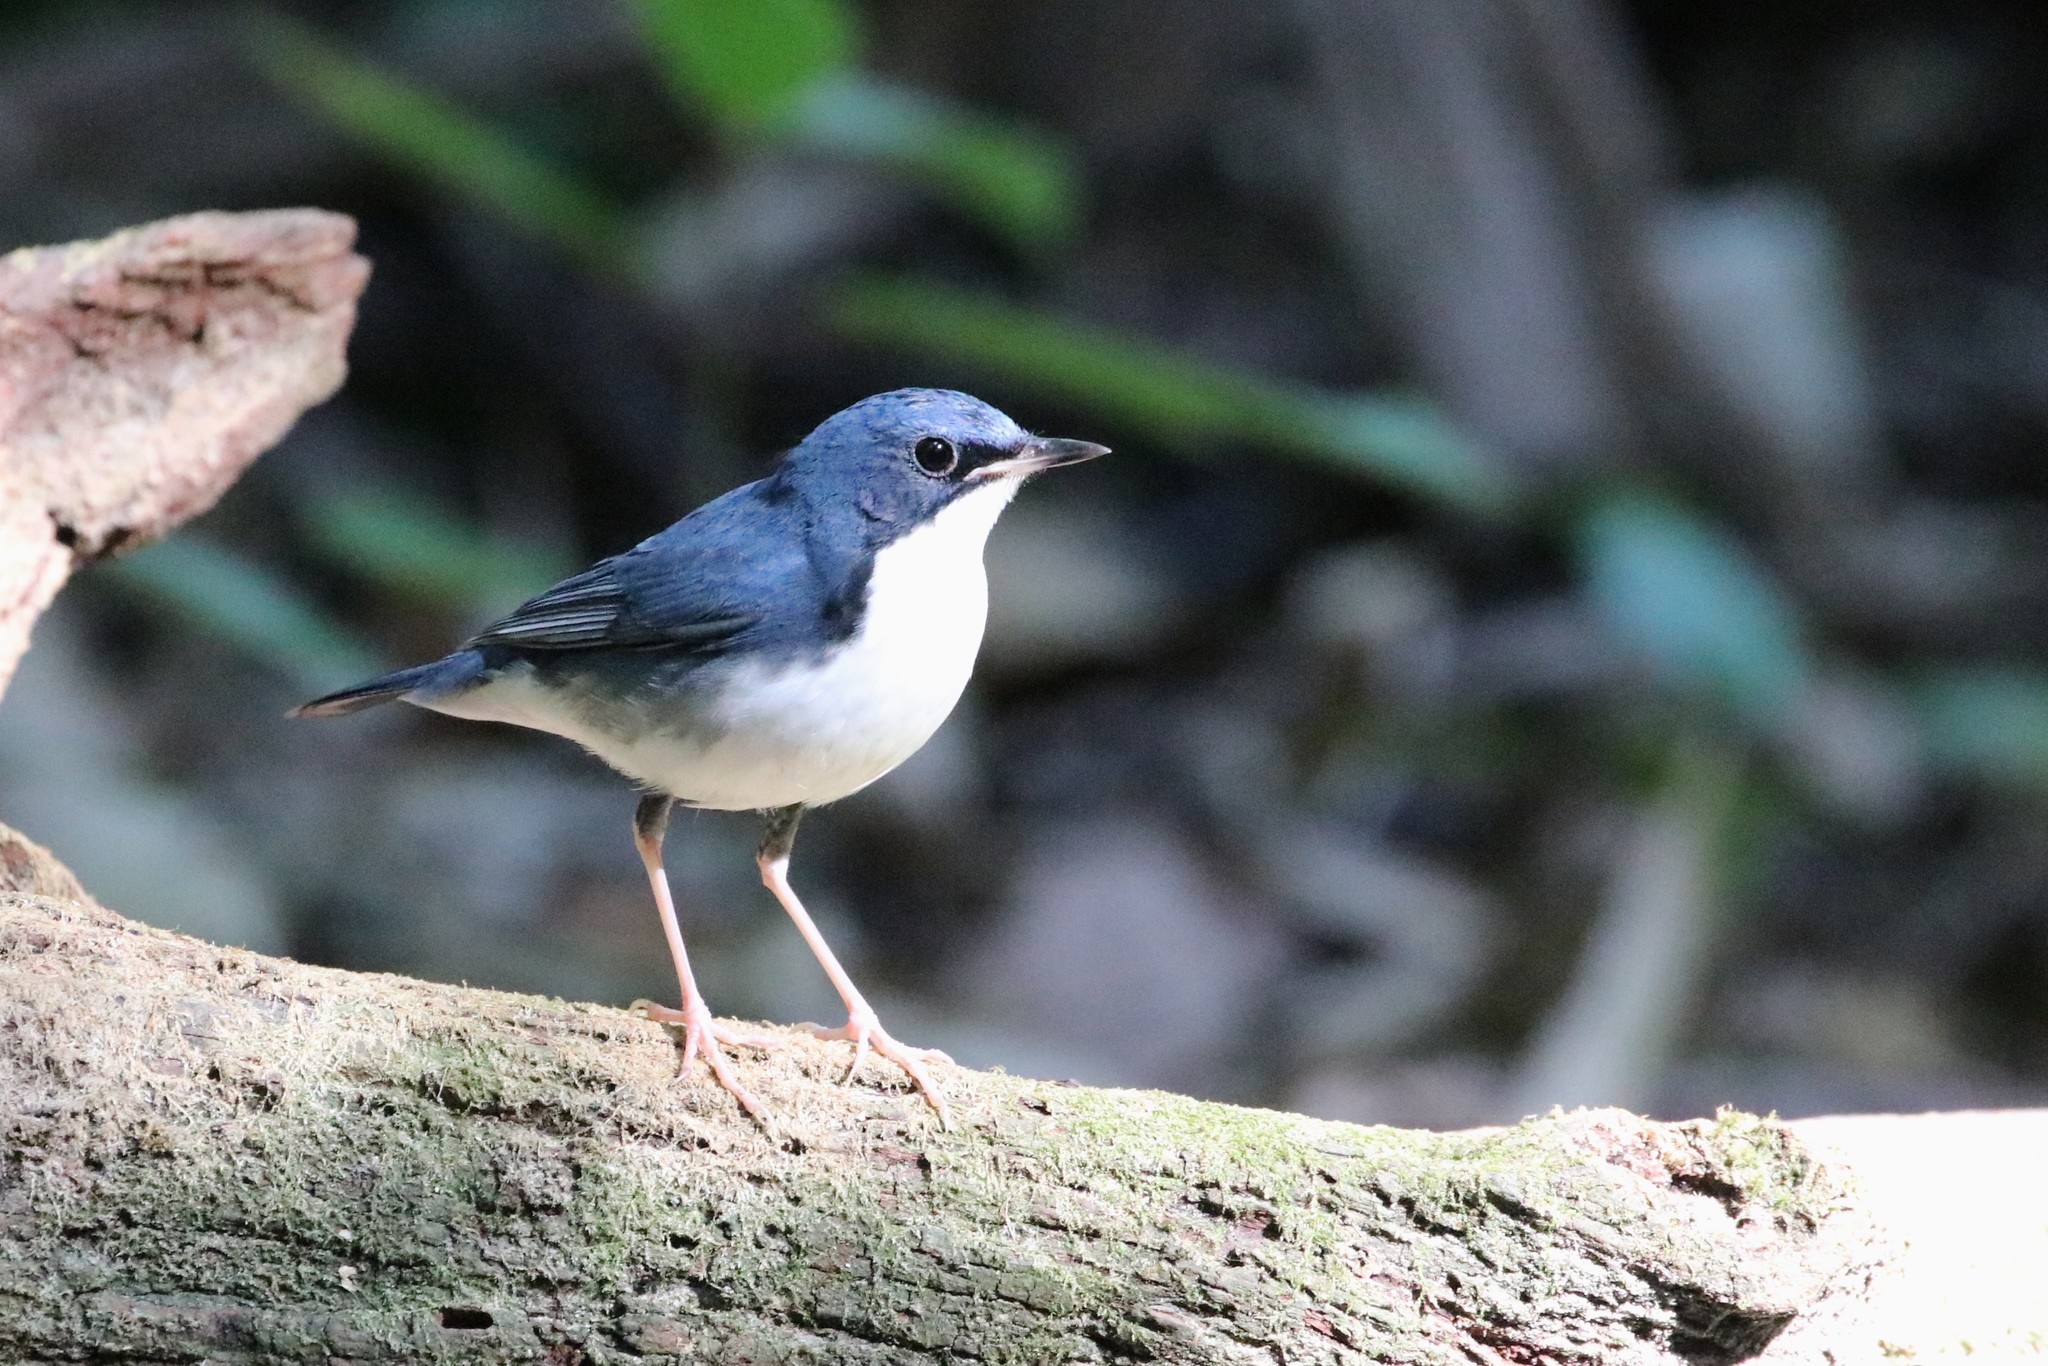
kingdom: Animalia
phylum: Chordata
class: Aves
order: Passeriformes
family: Muscicapidae
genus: Luscinia
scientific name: Luscinia cyane
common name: Siberian blue robin
